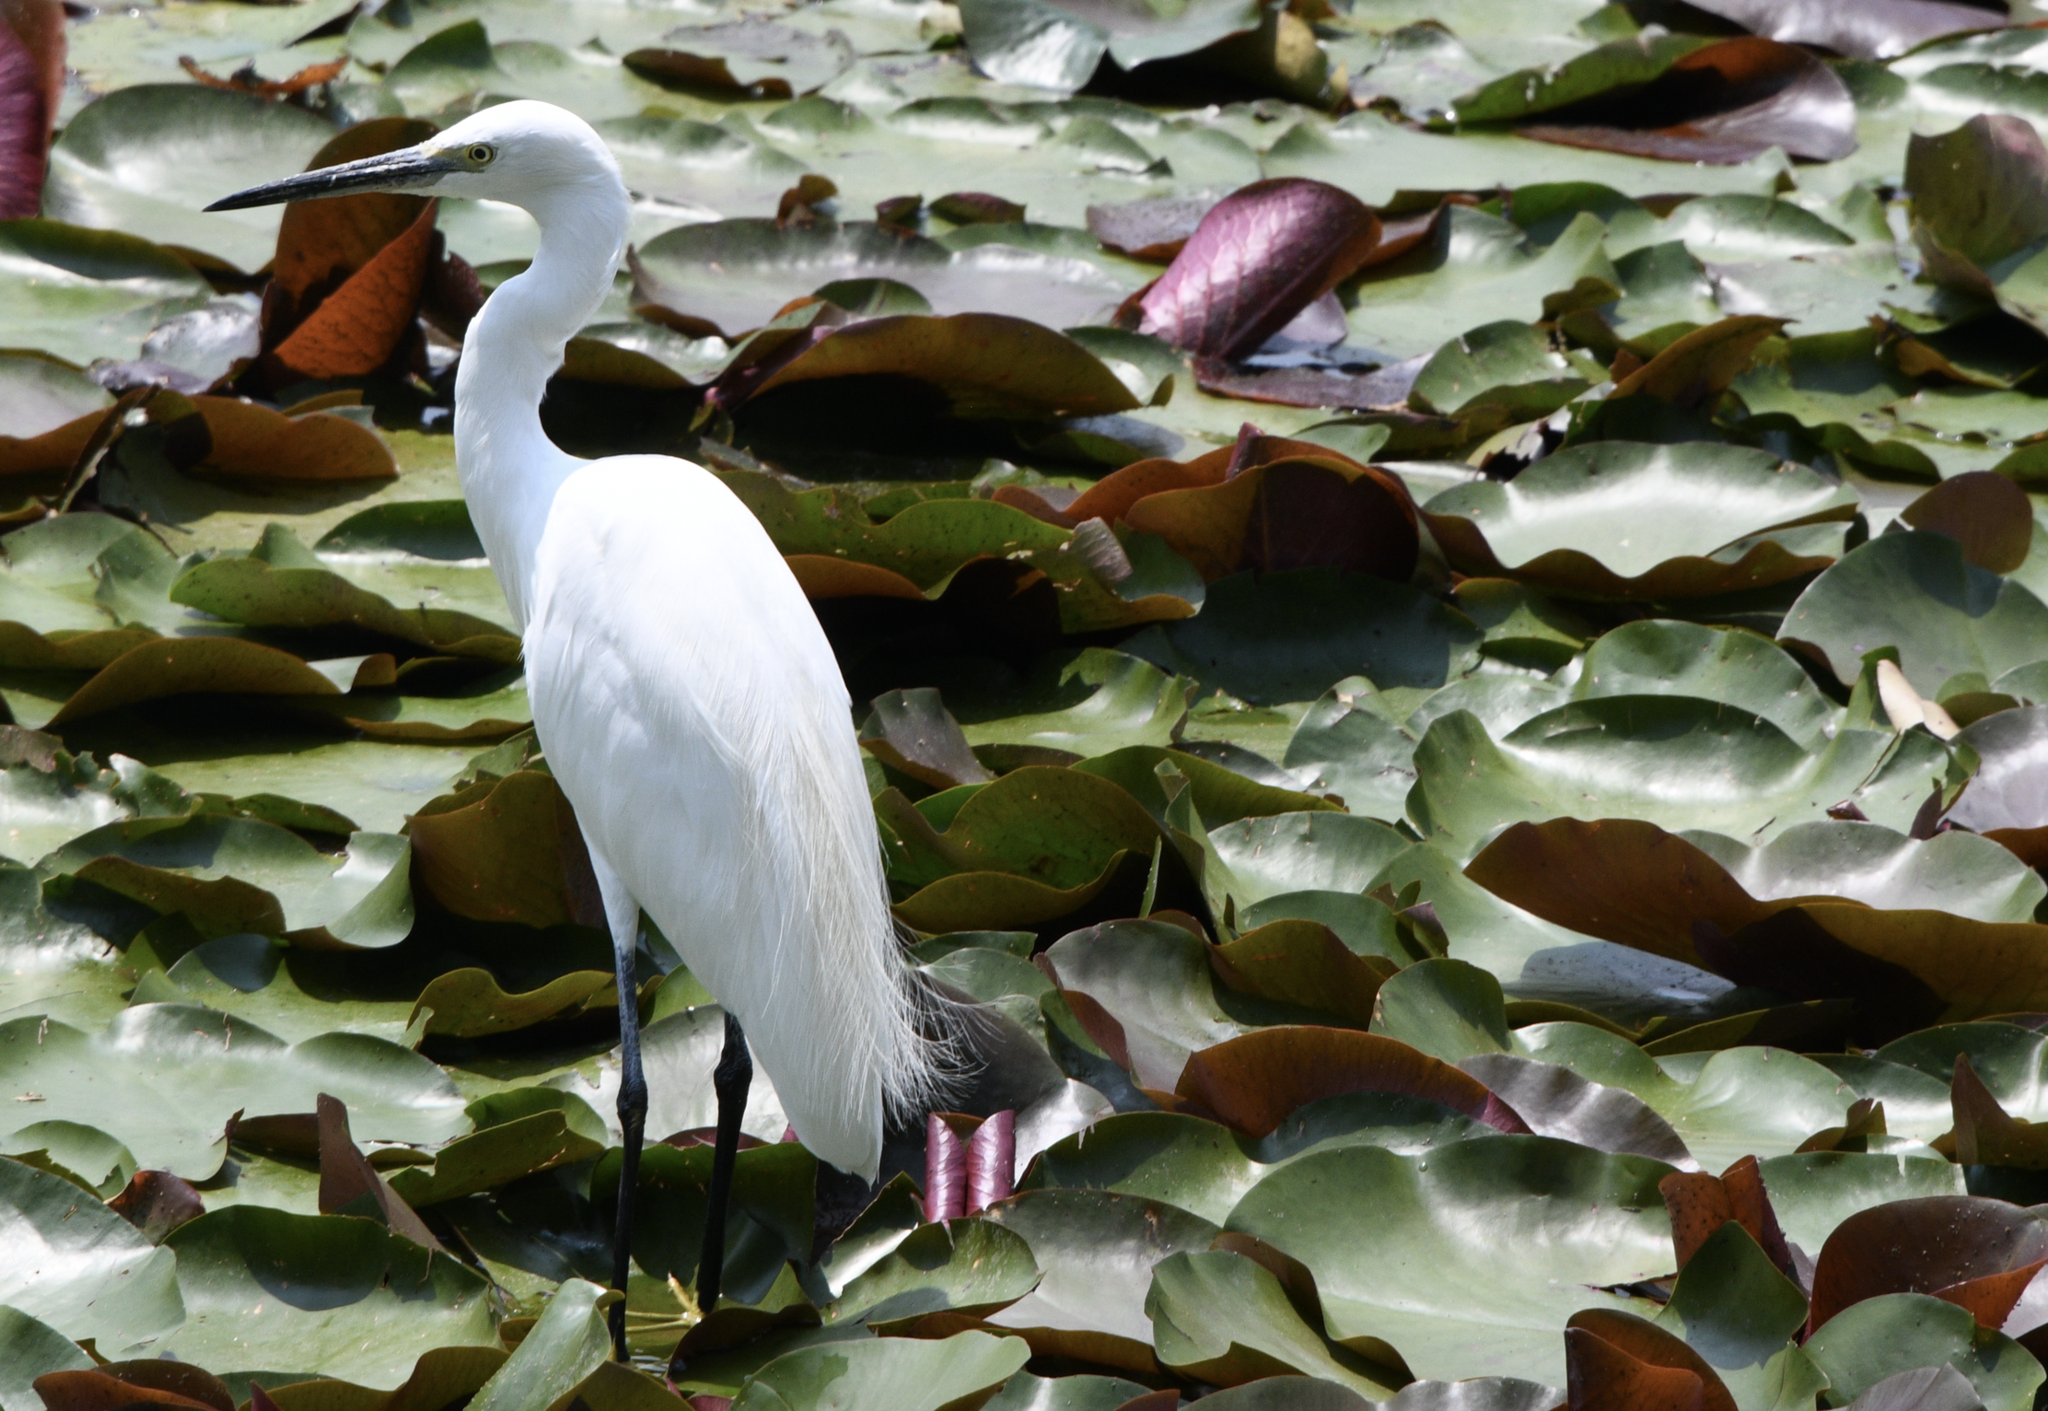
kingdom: Animalia
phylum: Chordata
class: Aves
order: Pelecaniformes
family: Ardeidae
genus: Egretta
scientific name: Egretta garzetta
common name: Little egret
